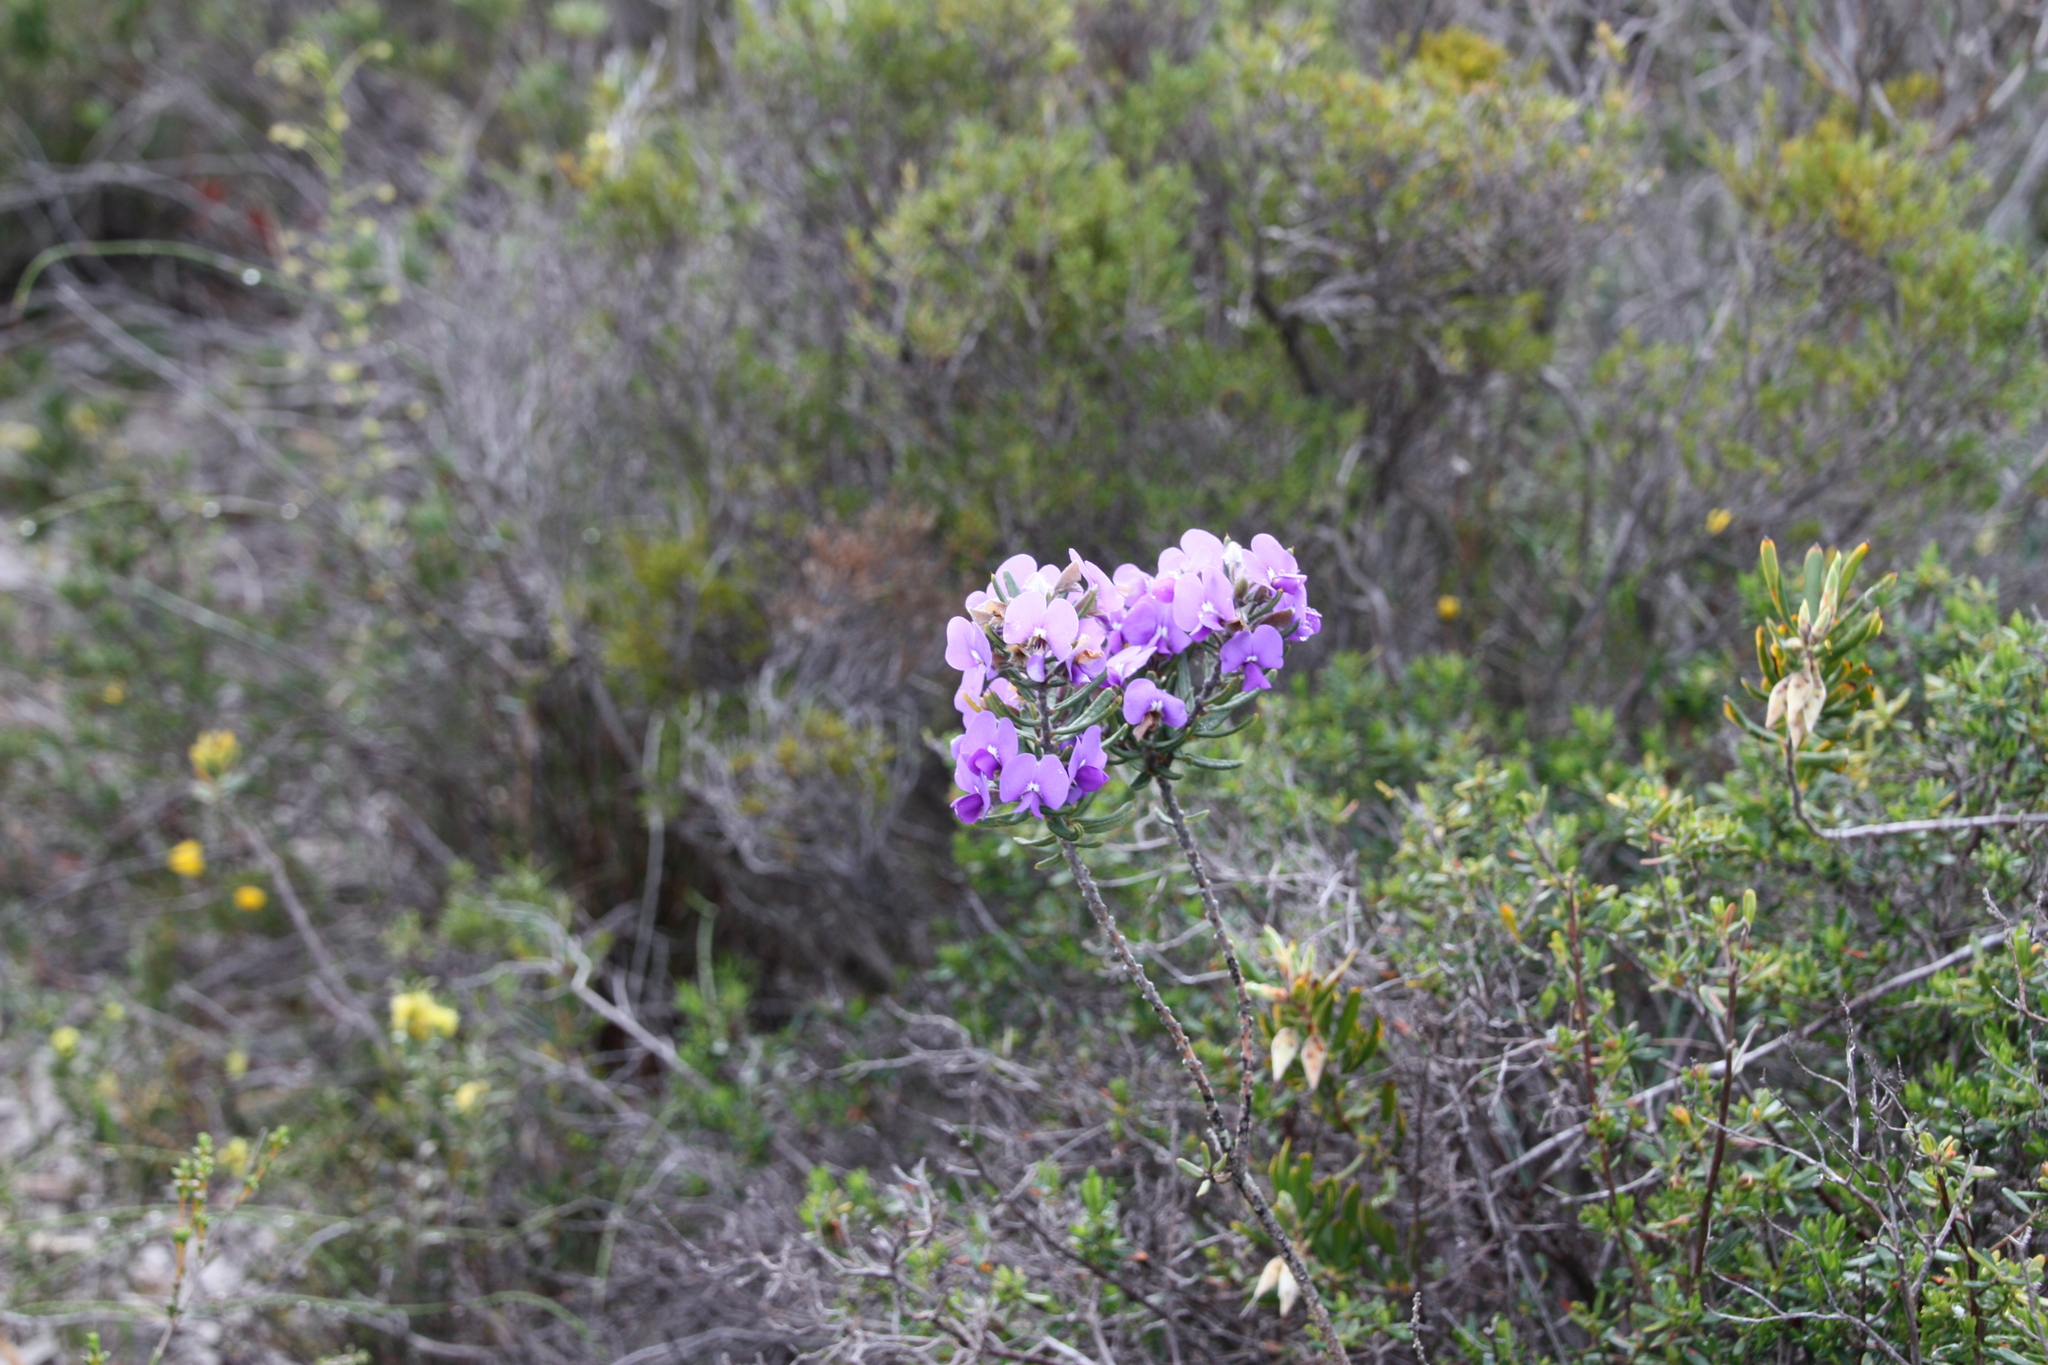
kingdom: Plantae
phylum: Tracheophyta
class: Magnoliopsida
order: Fabales
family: Fabaceae
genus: Hovea
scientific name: Hovea stricta
